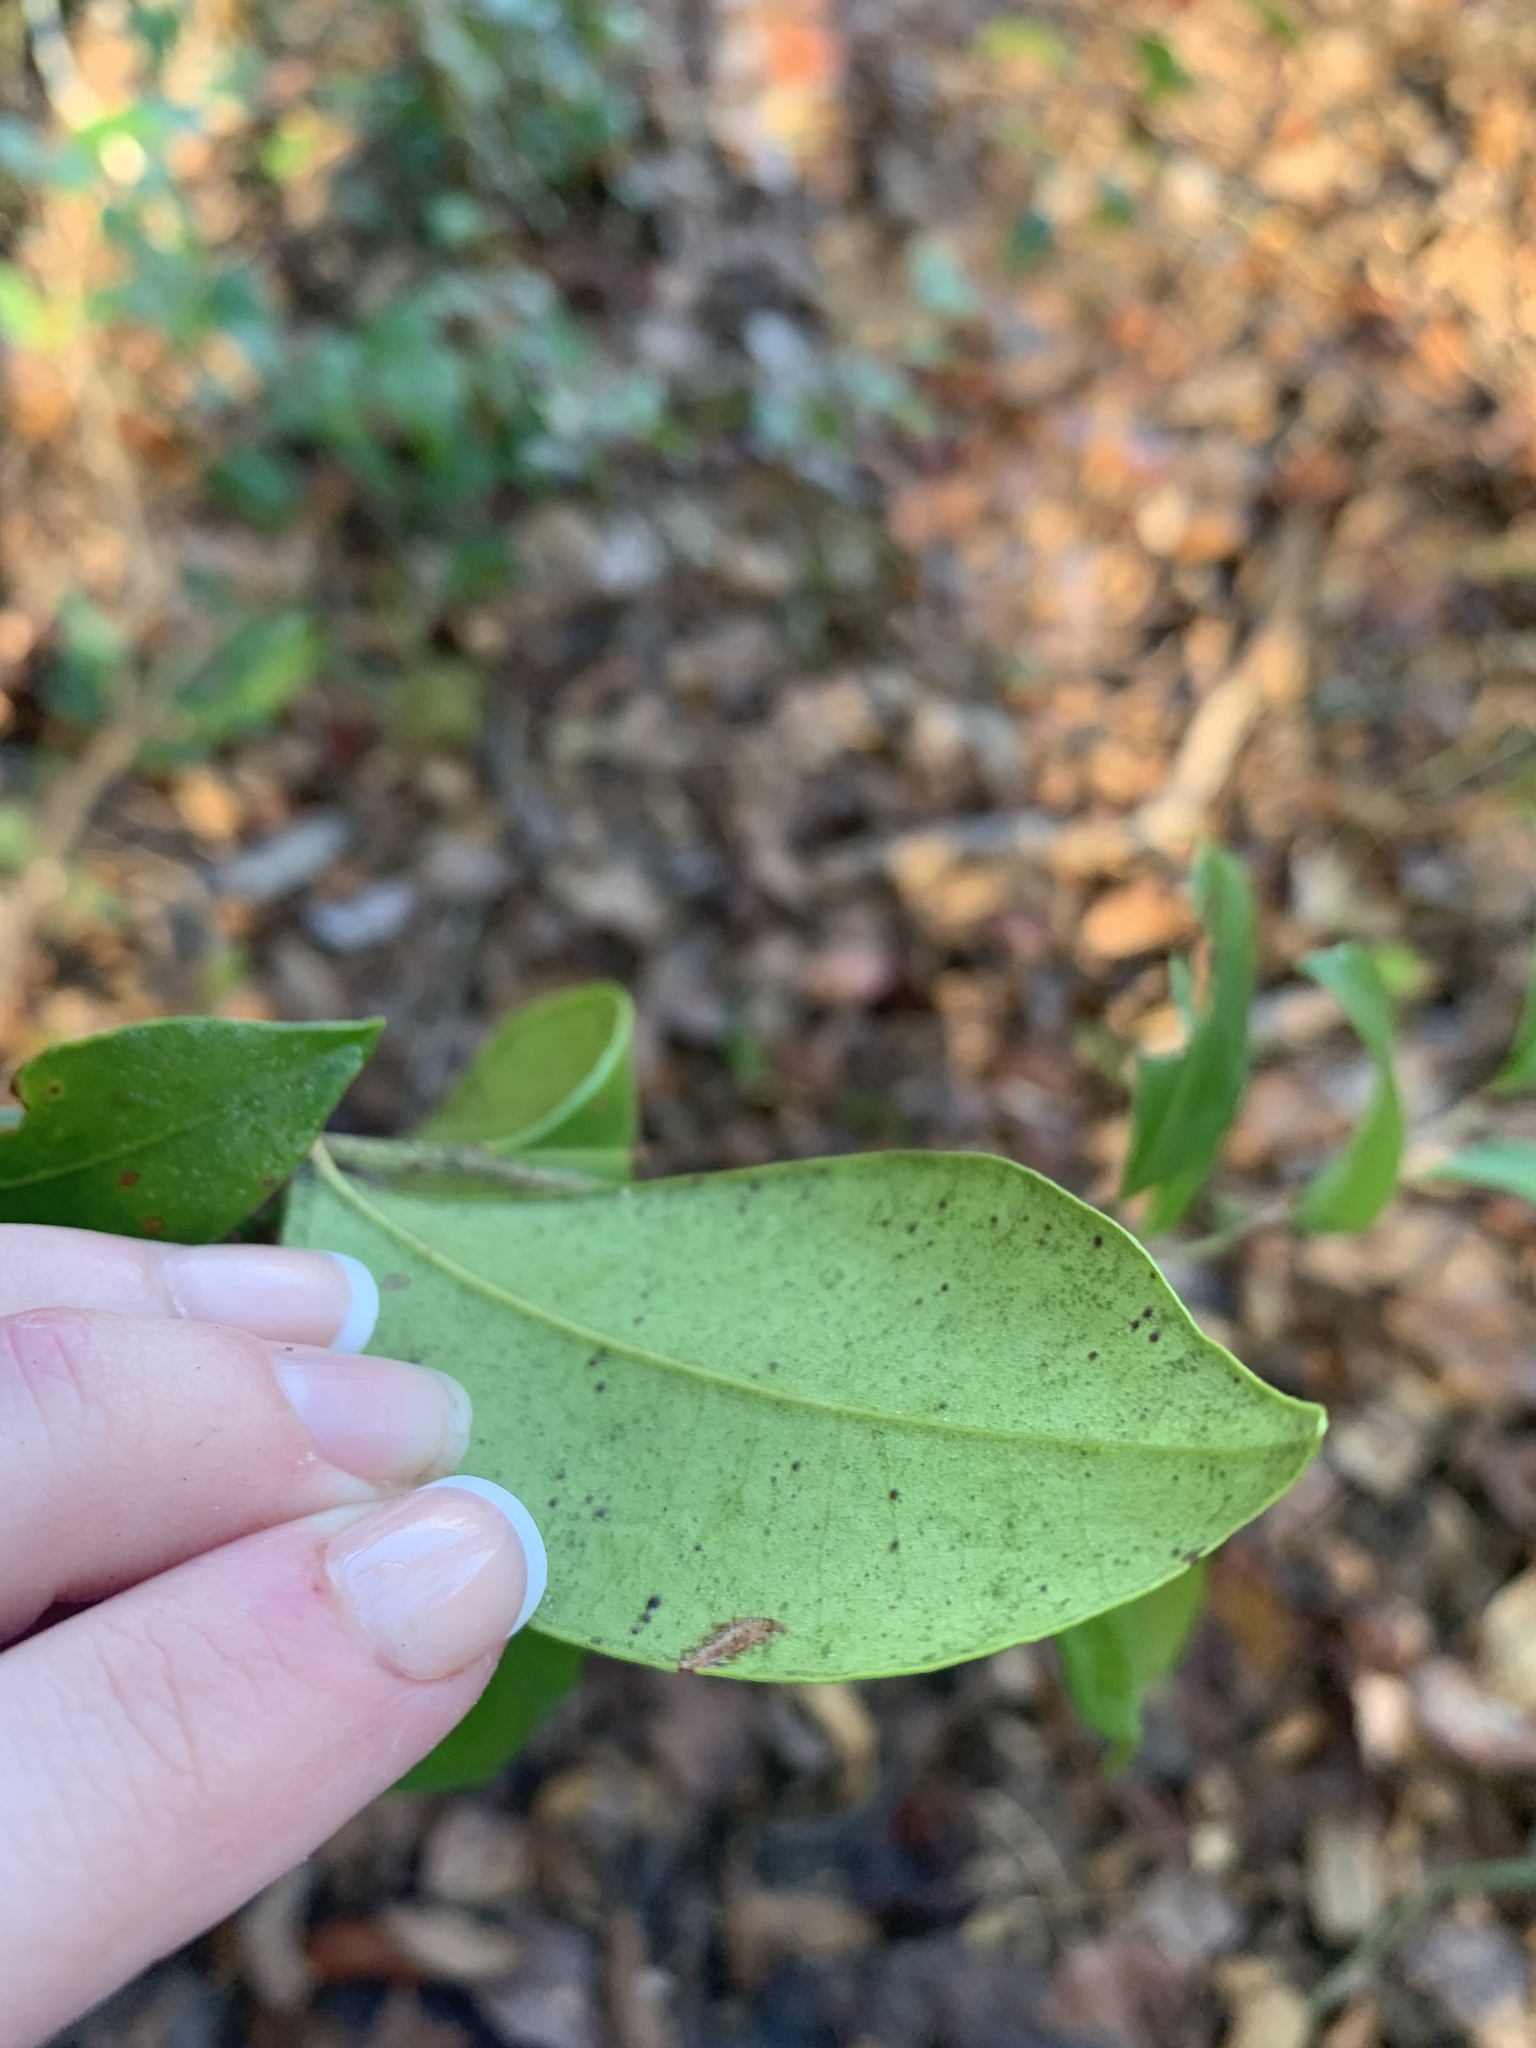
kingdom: Plantae
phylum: Tracheophyta
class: Magnoliopsida
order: Ericales
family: Ericaceae
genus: Lyonia
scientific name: Lyonia lucida
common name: Fetterbush
